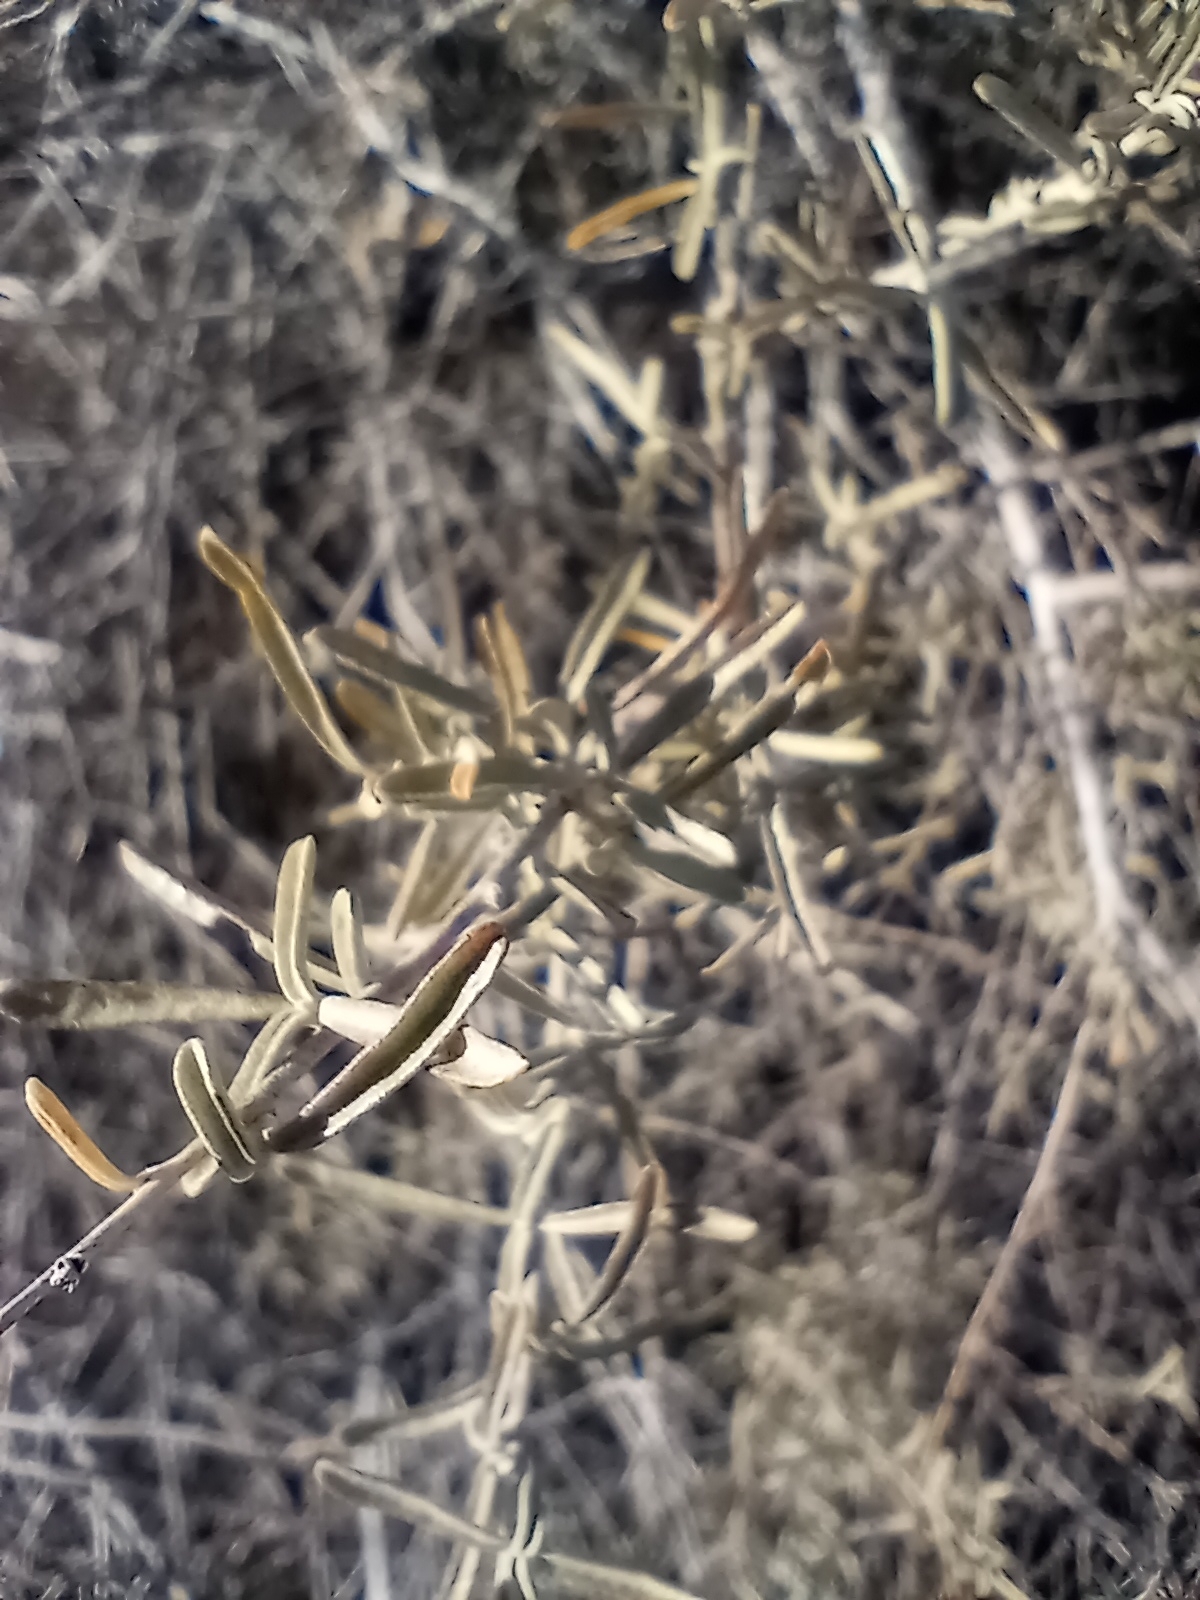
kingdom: Plantae
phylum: Tracheophyta
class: Magnoliopsida
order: Caryophyllales
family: Amaranthaceae
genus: Atriplex
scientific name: Atriplex canescens
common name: Four-wing saltbush
